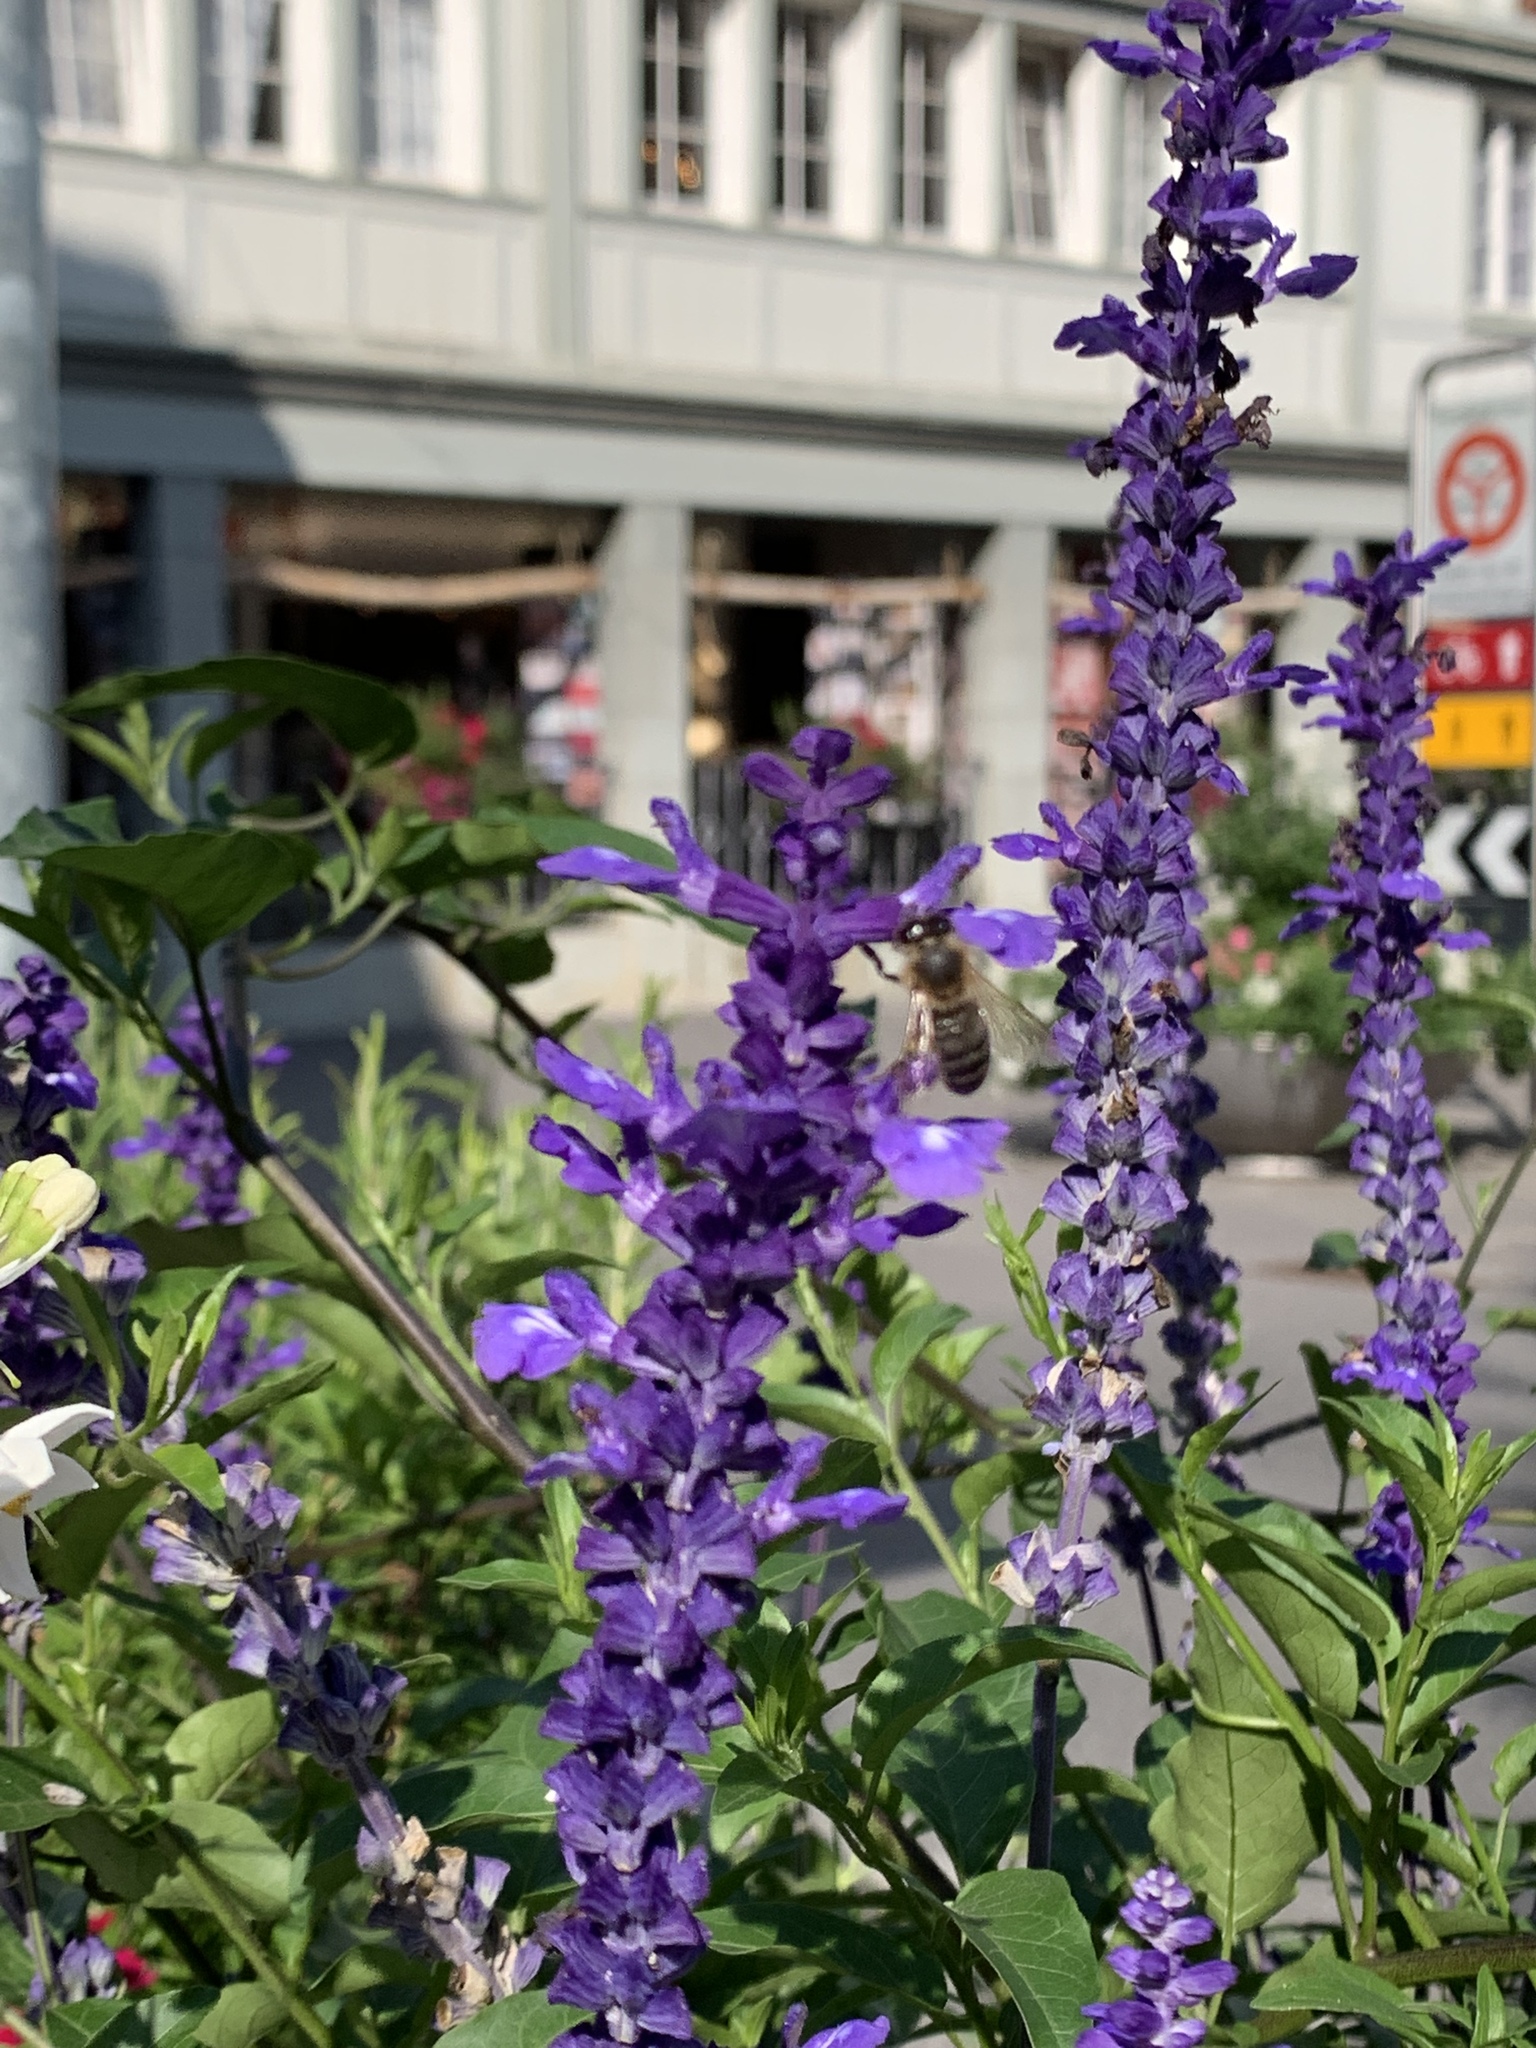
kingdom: Animalia
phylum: Arthropoda
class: Insecta
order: Hymenoptera
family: Apidae
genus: Apis
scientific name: Apis mellifera
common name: Honey bee
